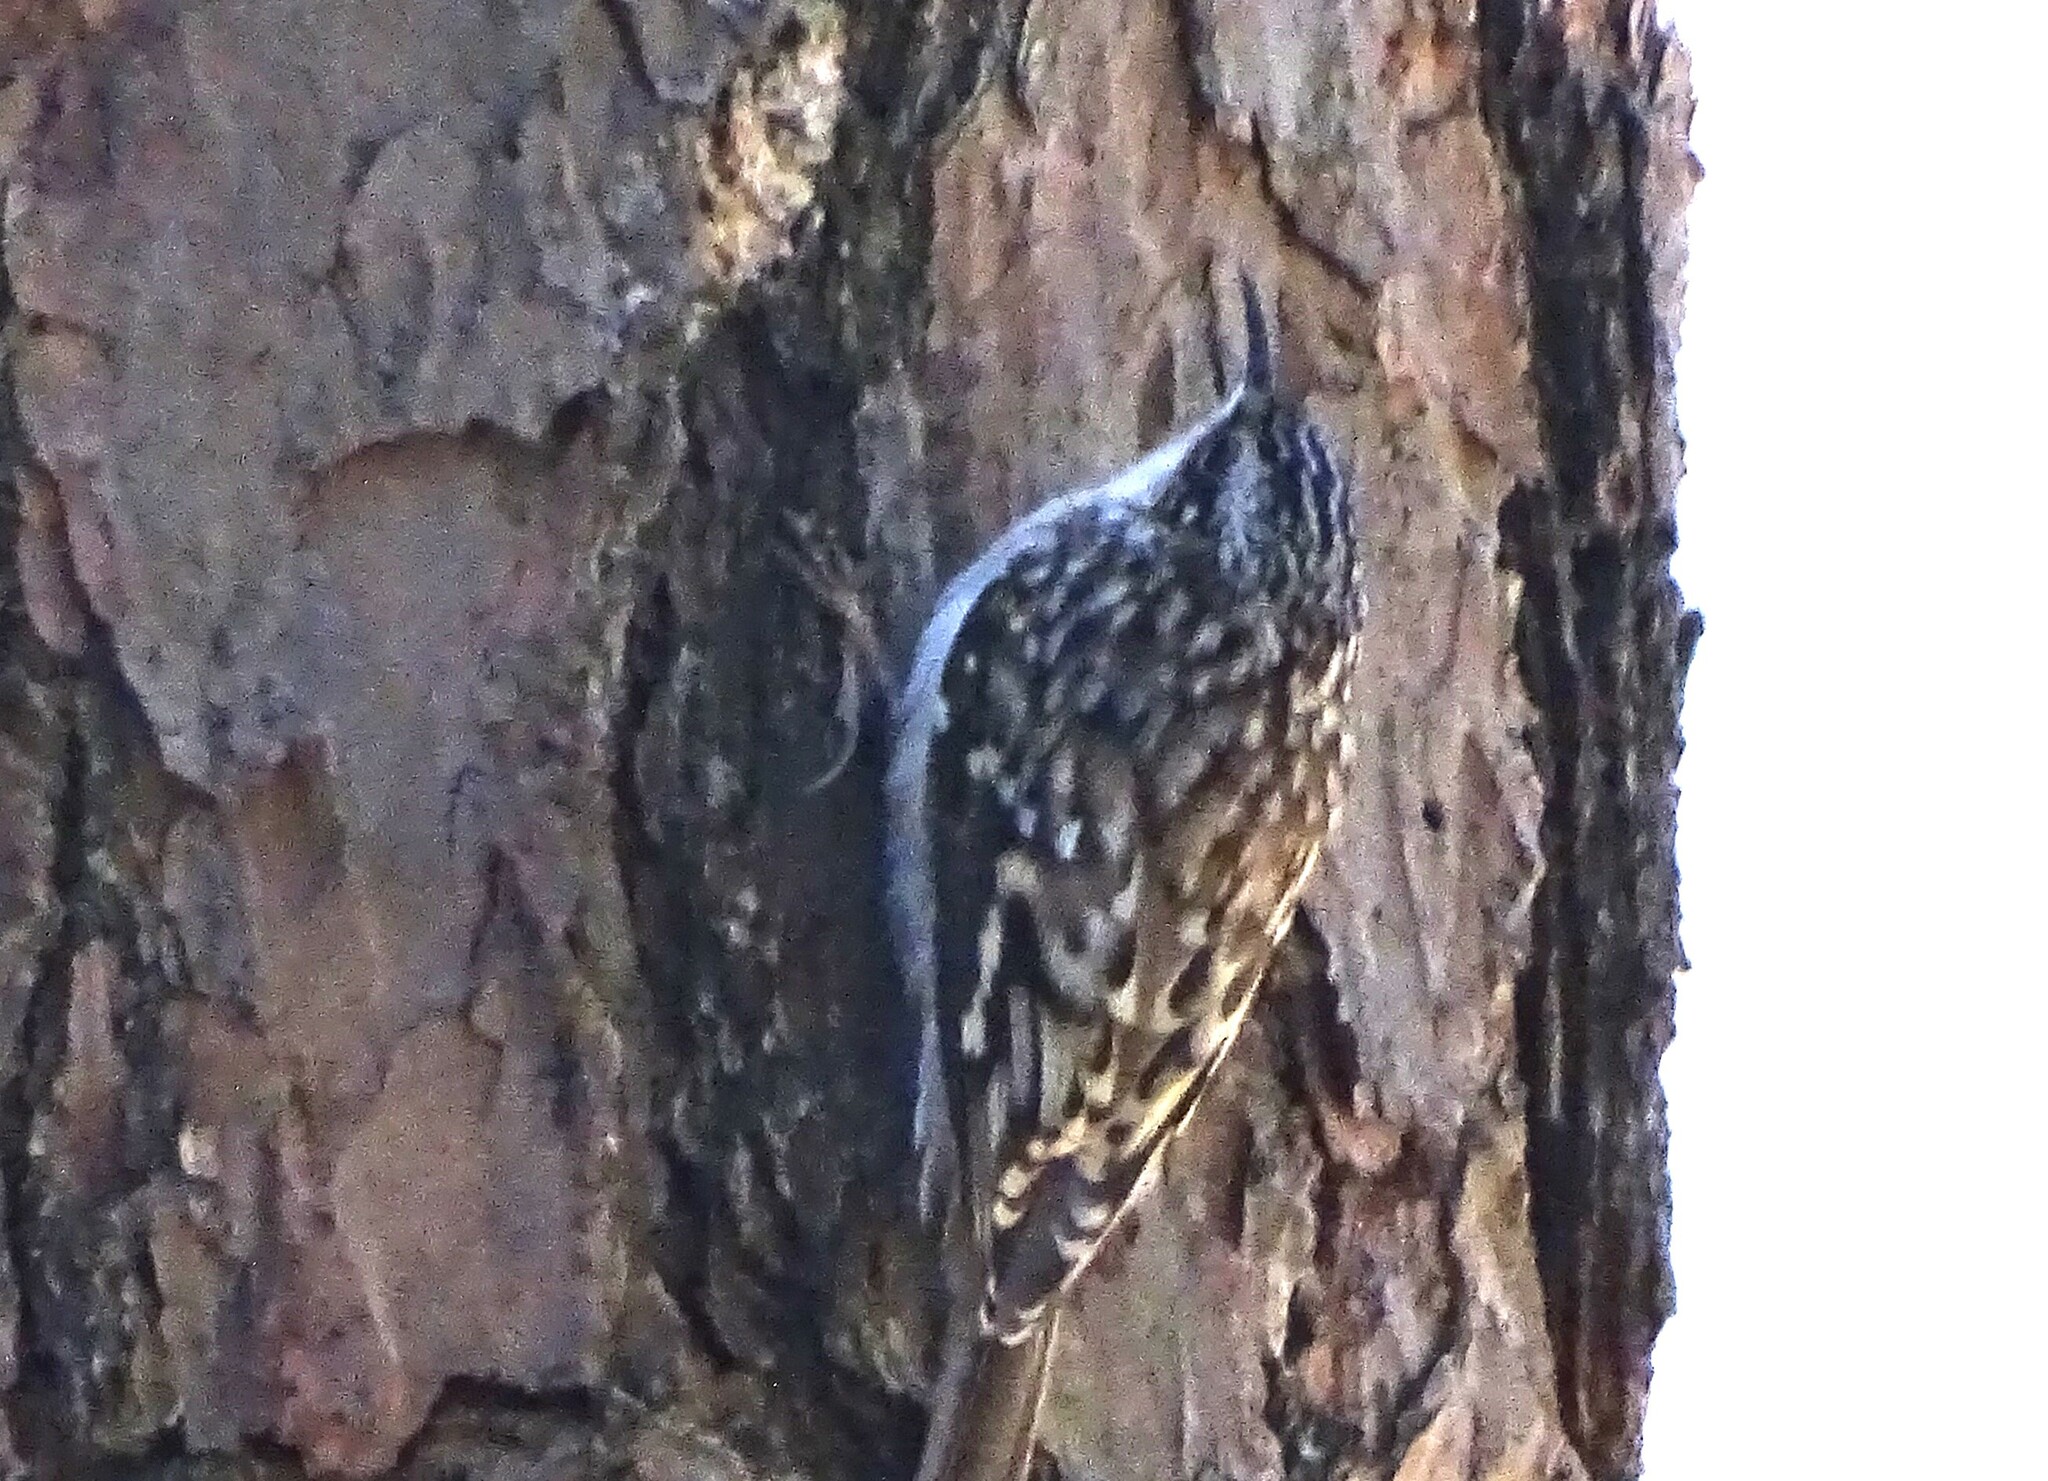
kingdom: Animalia
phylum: Chordata
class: Aves
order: Passeriformes
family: Certhiidae
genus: Certhia
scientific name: Certhia americana
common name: Brown creeper
